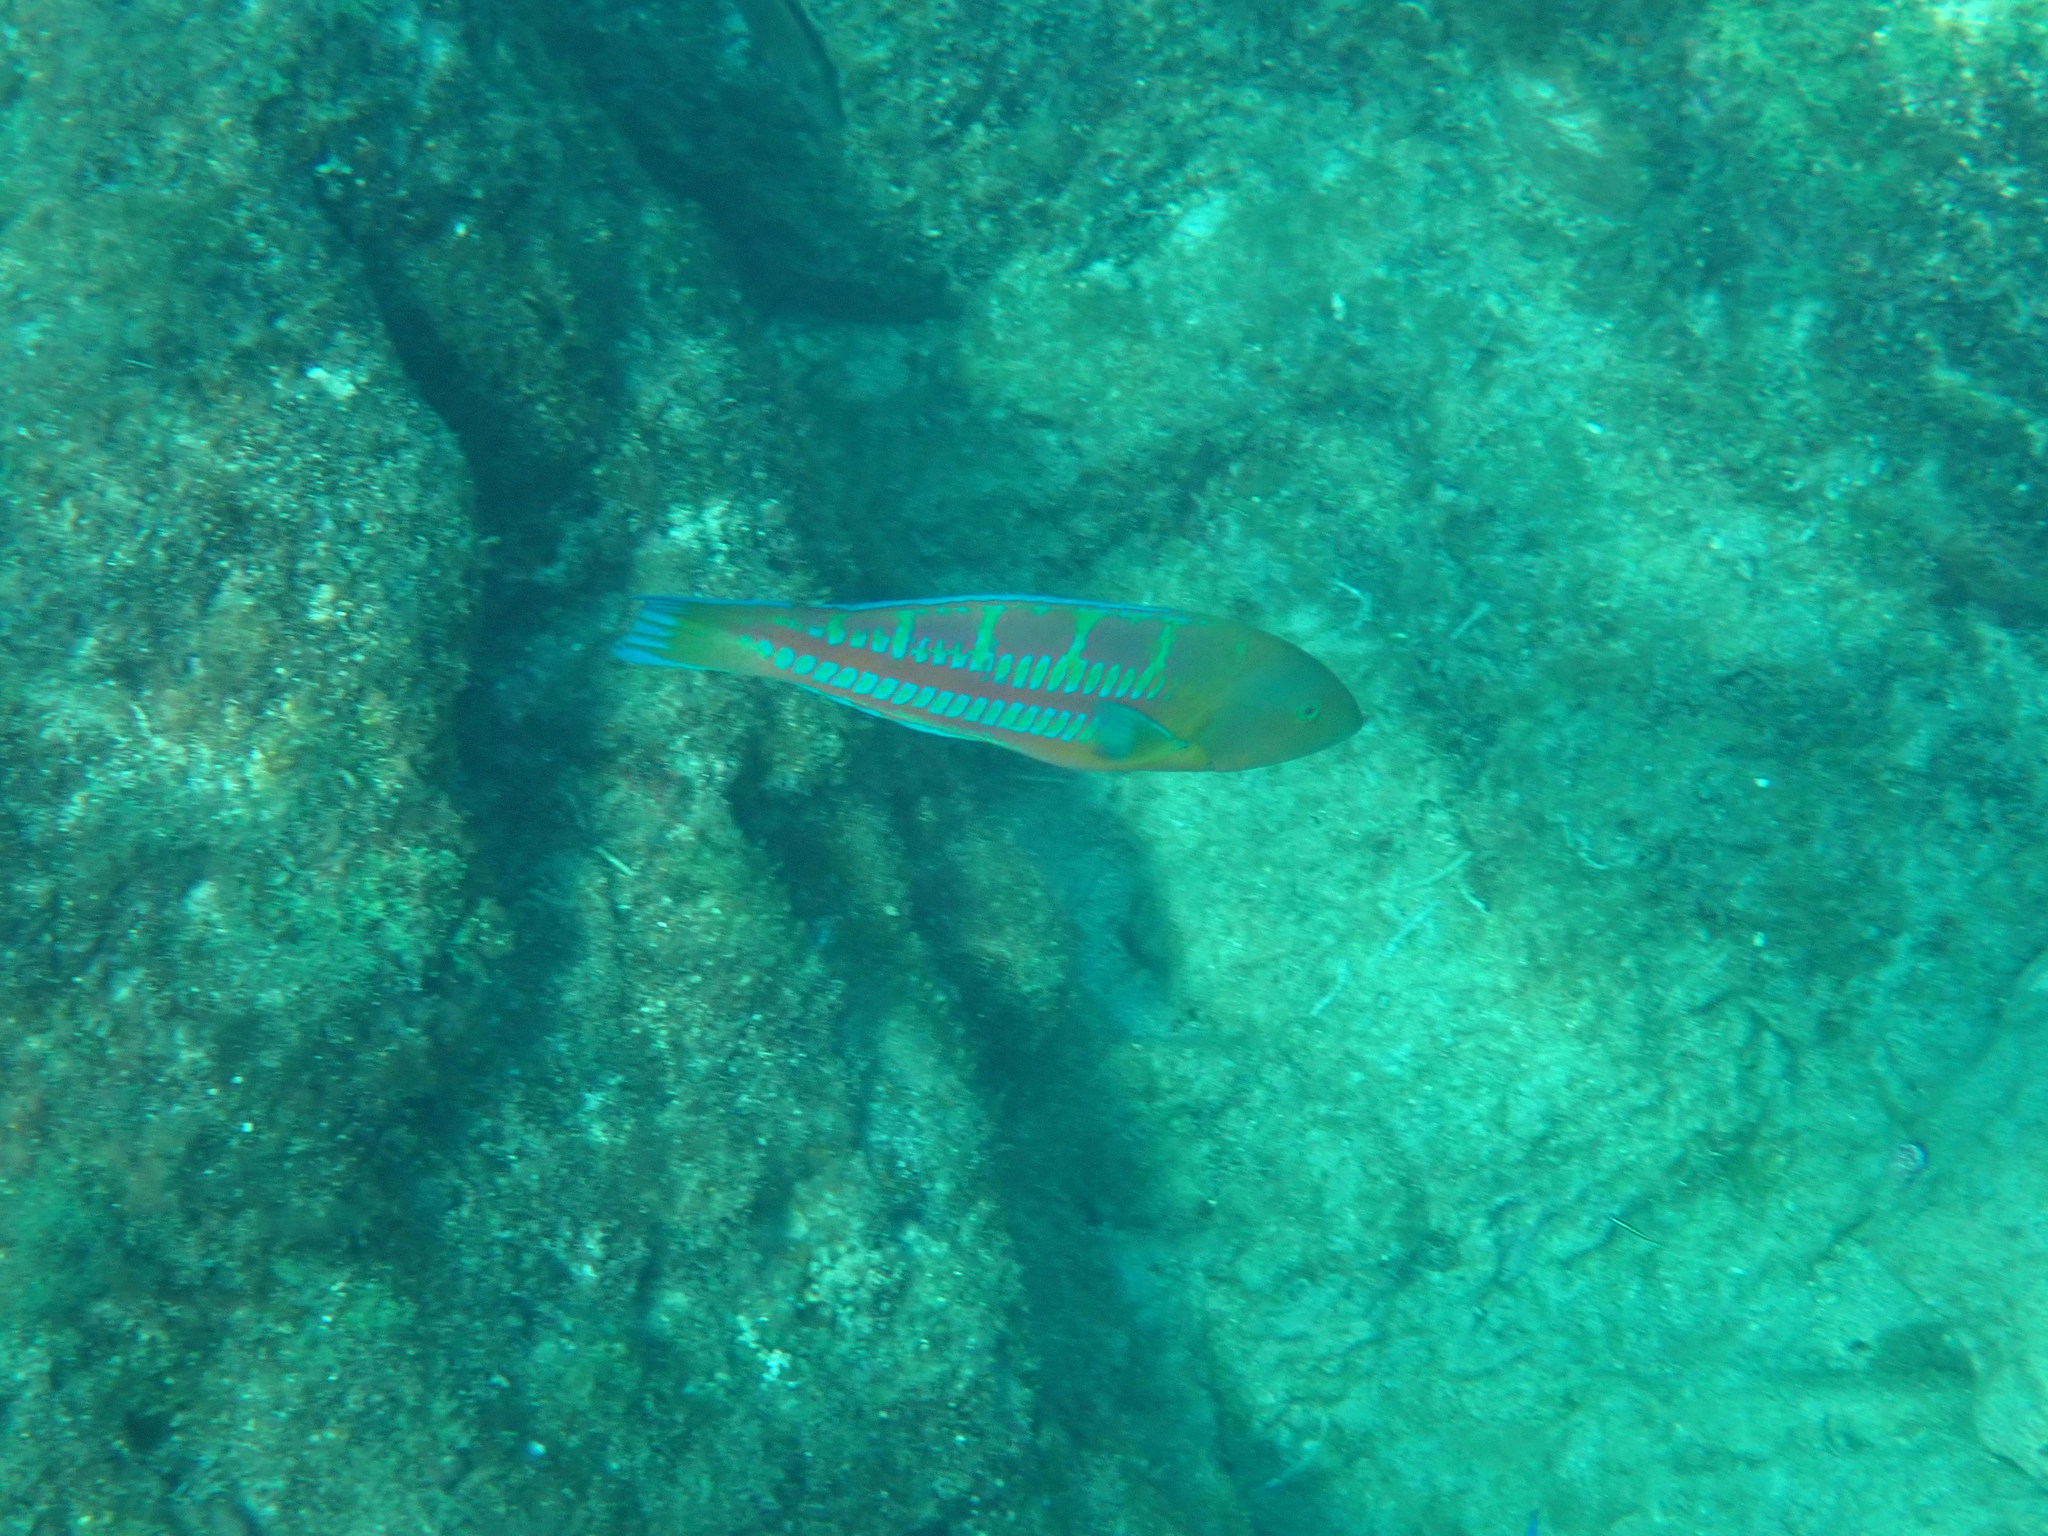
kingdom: Animalia
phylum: Chordata
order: Perciformes
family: Labridae
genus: Thalassoma
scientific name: Thalassoma trilobatum
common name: Christmas wrasse
